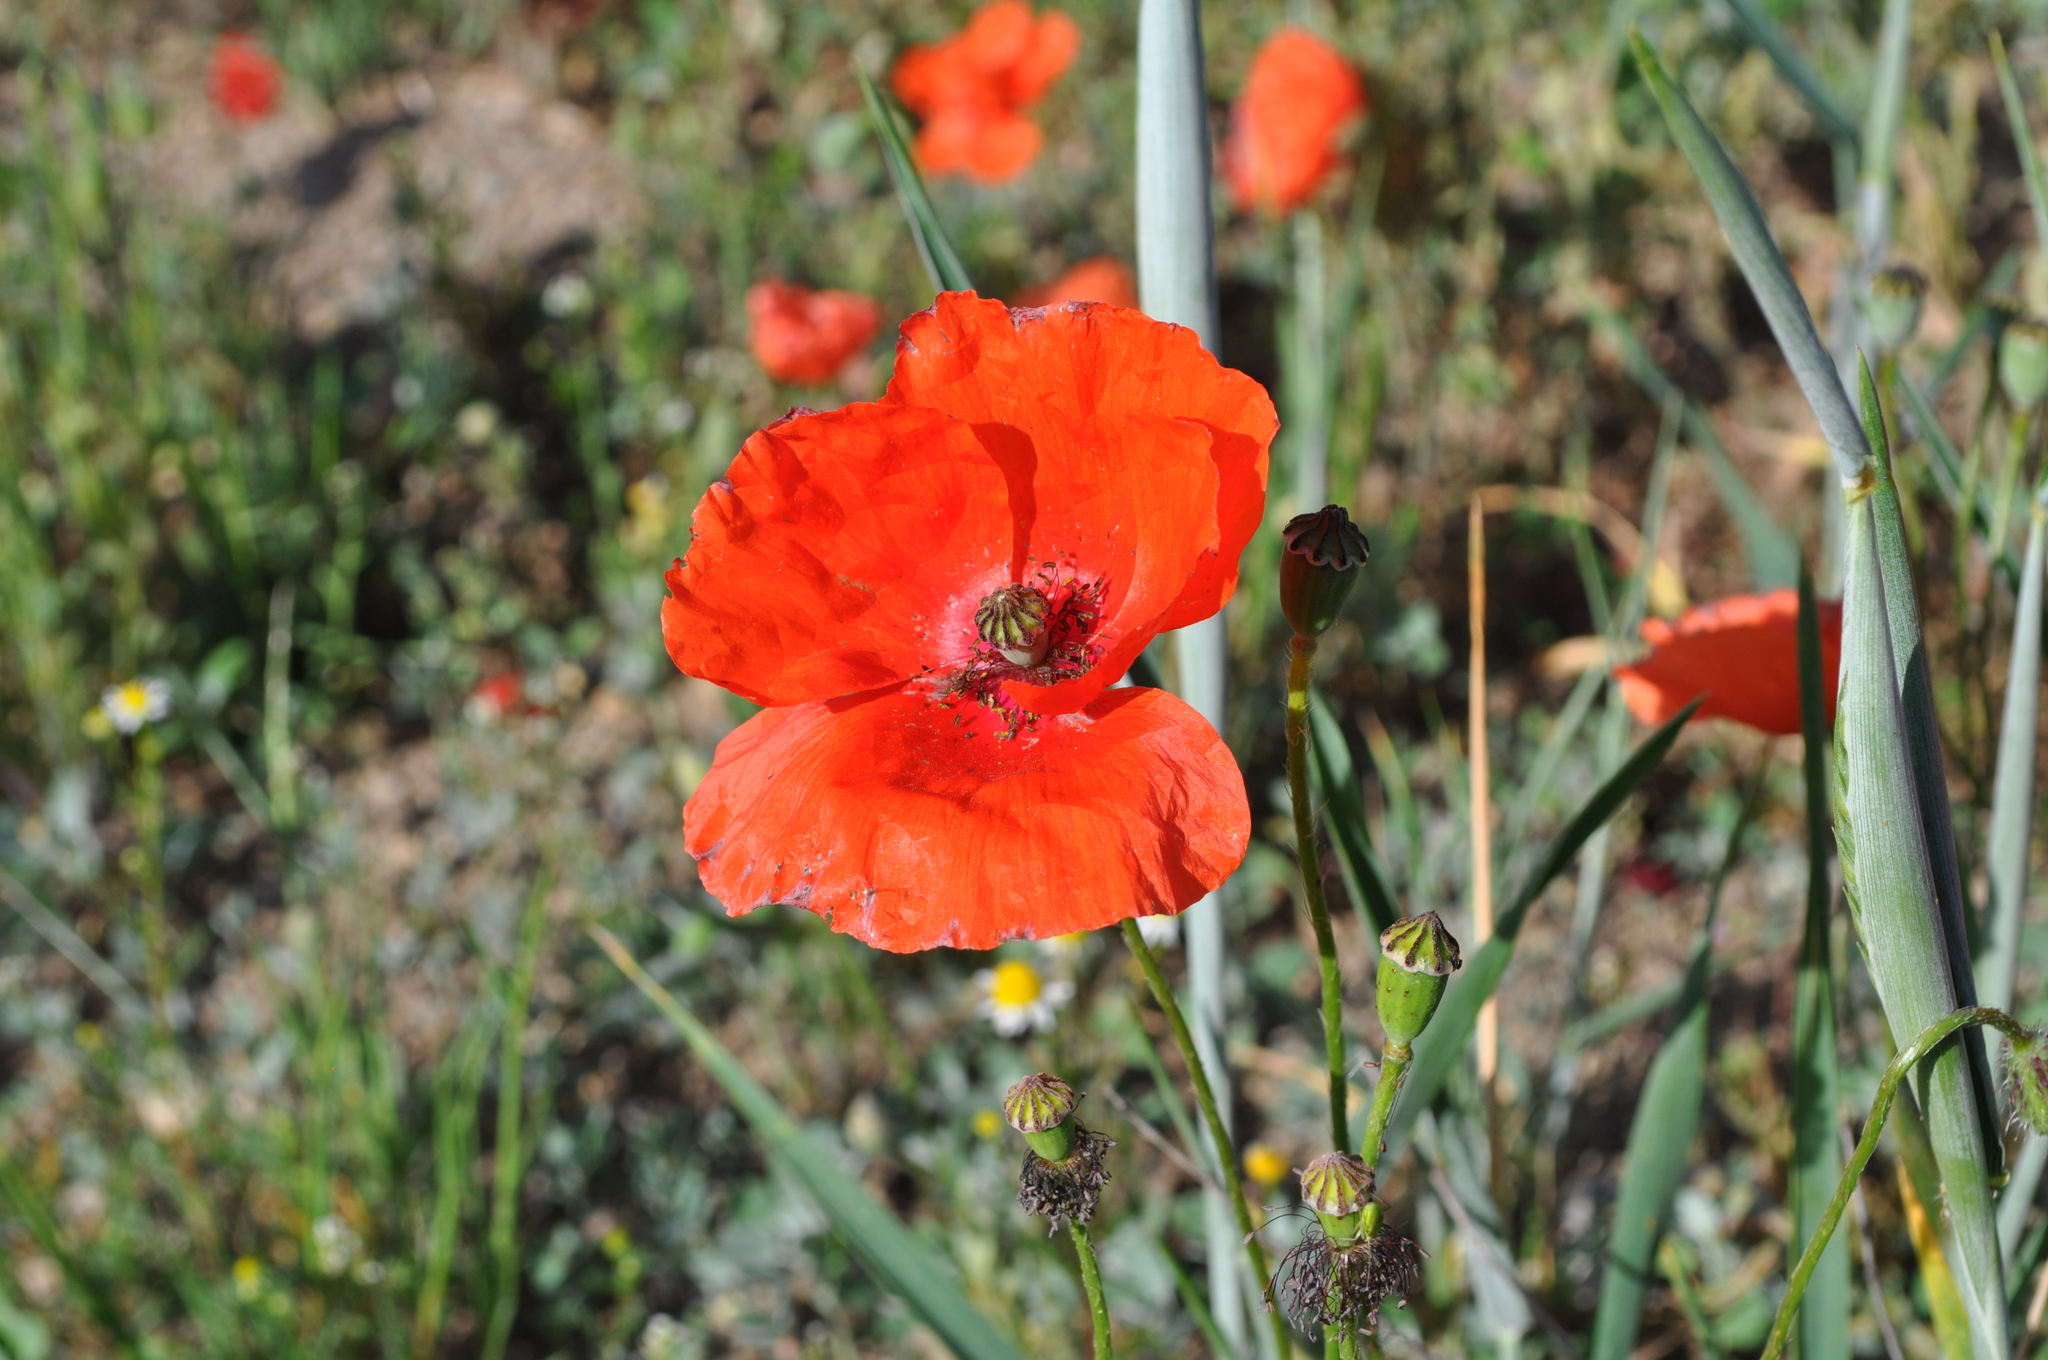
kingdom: Plantae
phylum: Tracheophyta
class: Magnoliopsida
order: Ranunculales
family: Papaveraceae
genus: Papaver
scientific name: Papaver rhoeas
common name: Corn poppy
